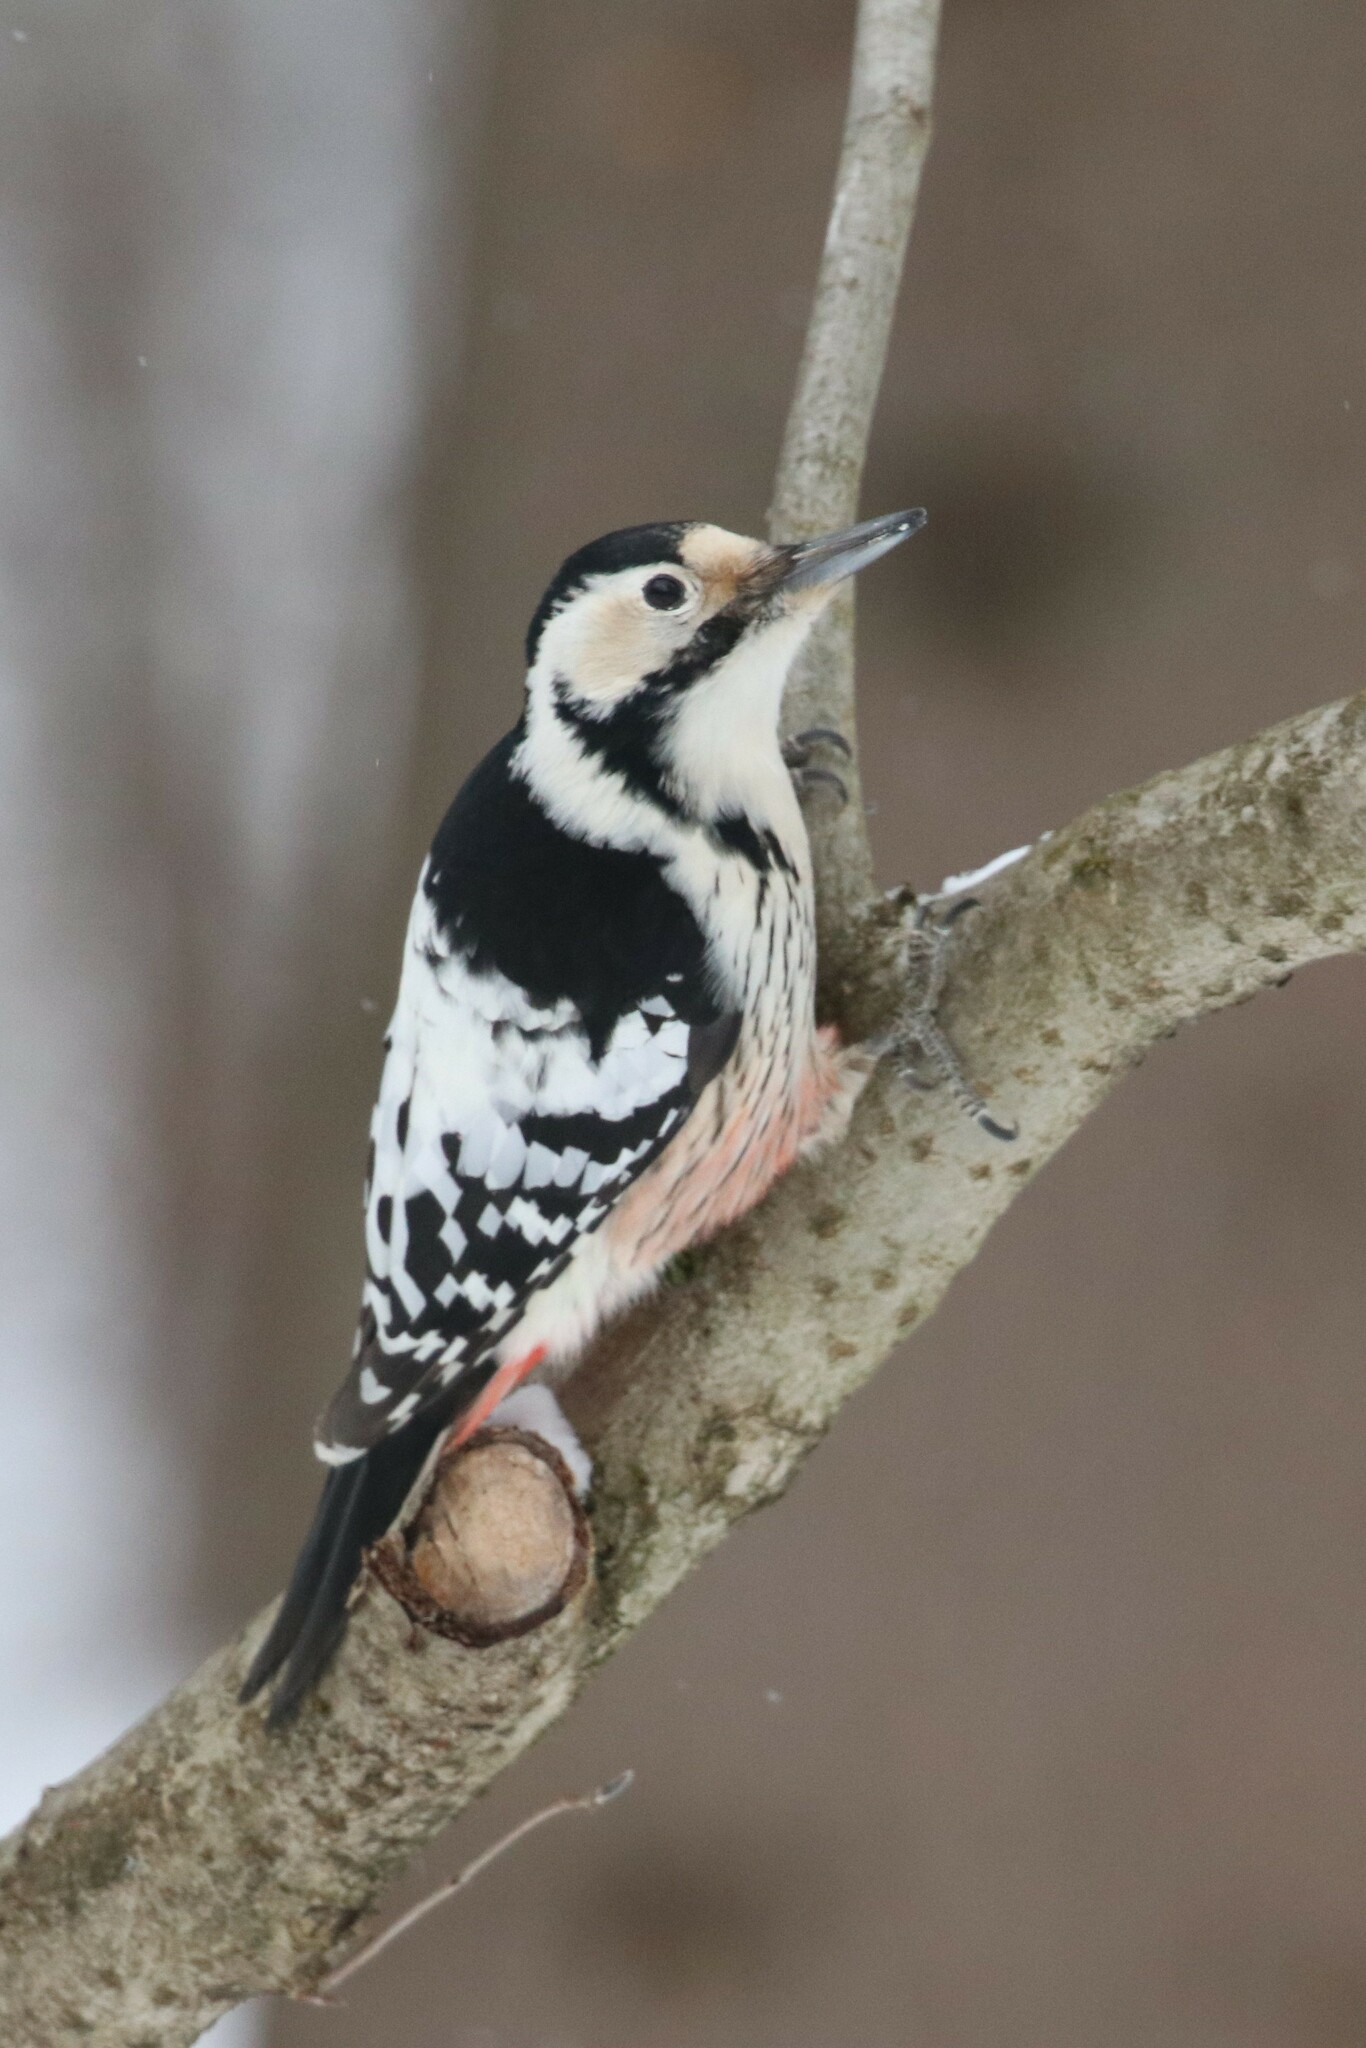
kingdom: Animalia
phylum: Chordata
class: Aves
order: Piciformes
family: Picidae
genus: Dendrocopos
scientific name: Dendrocopos leucotos
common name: White-backed woodpecker
